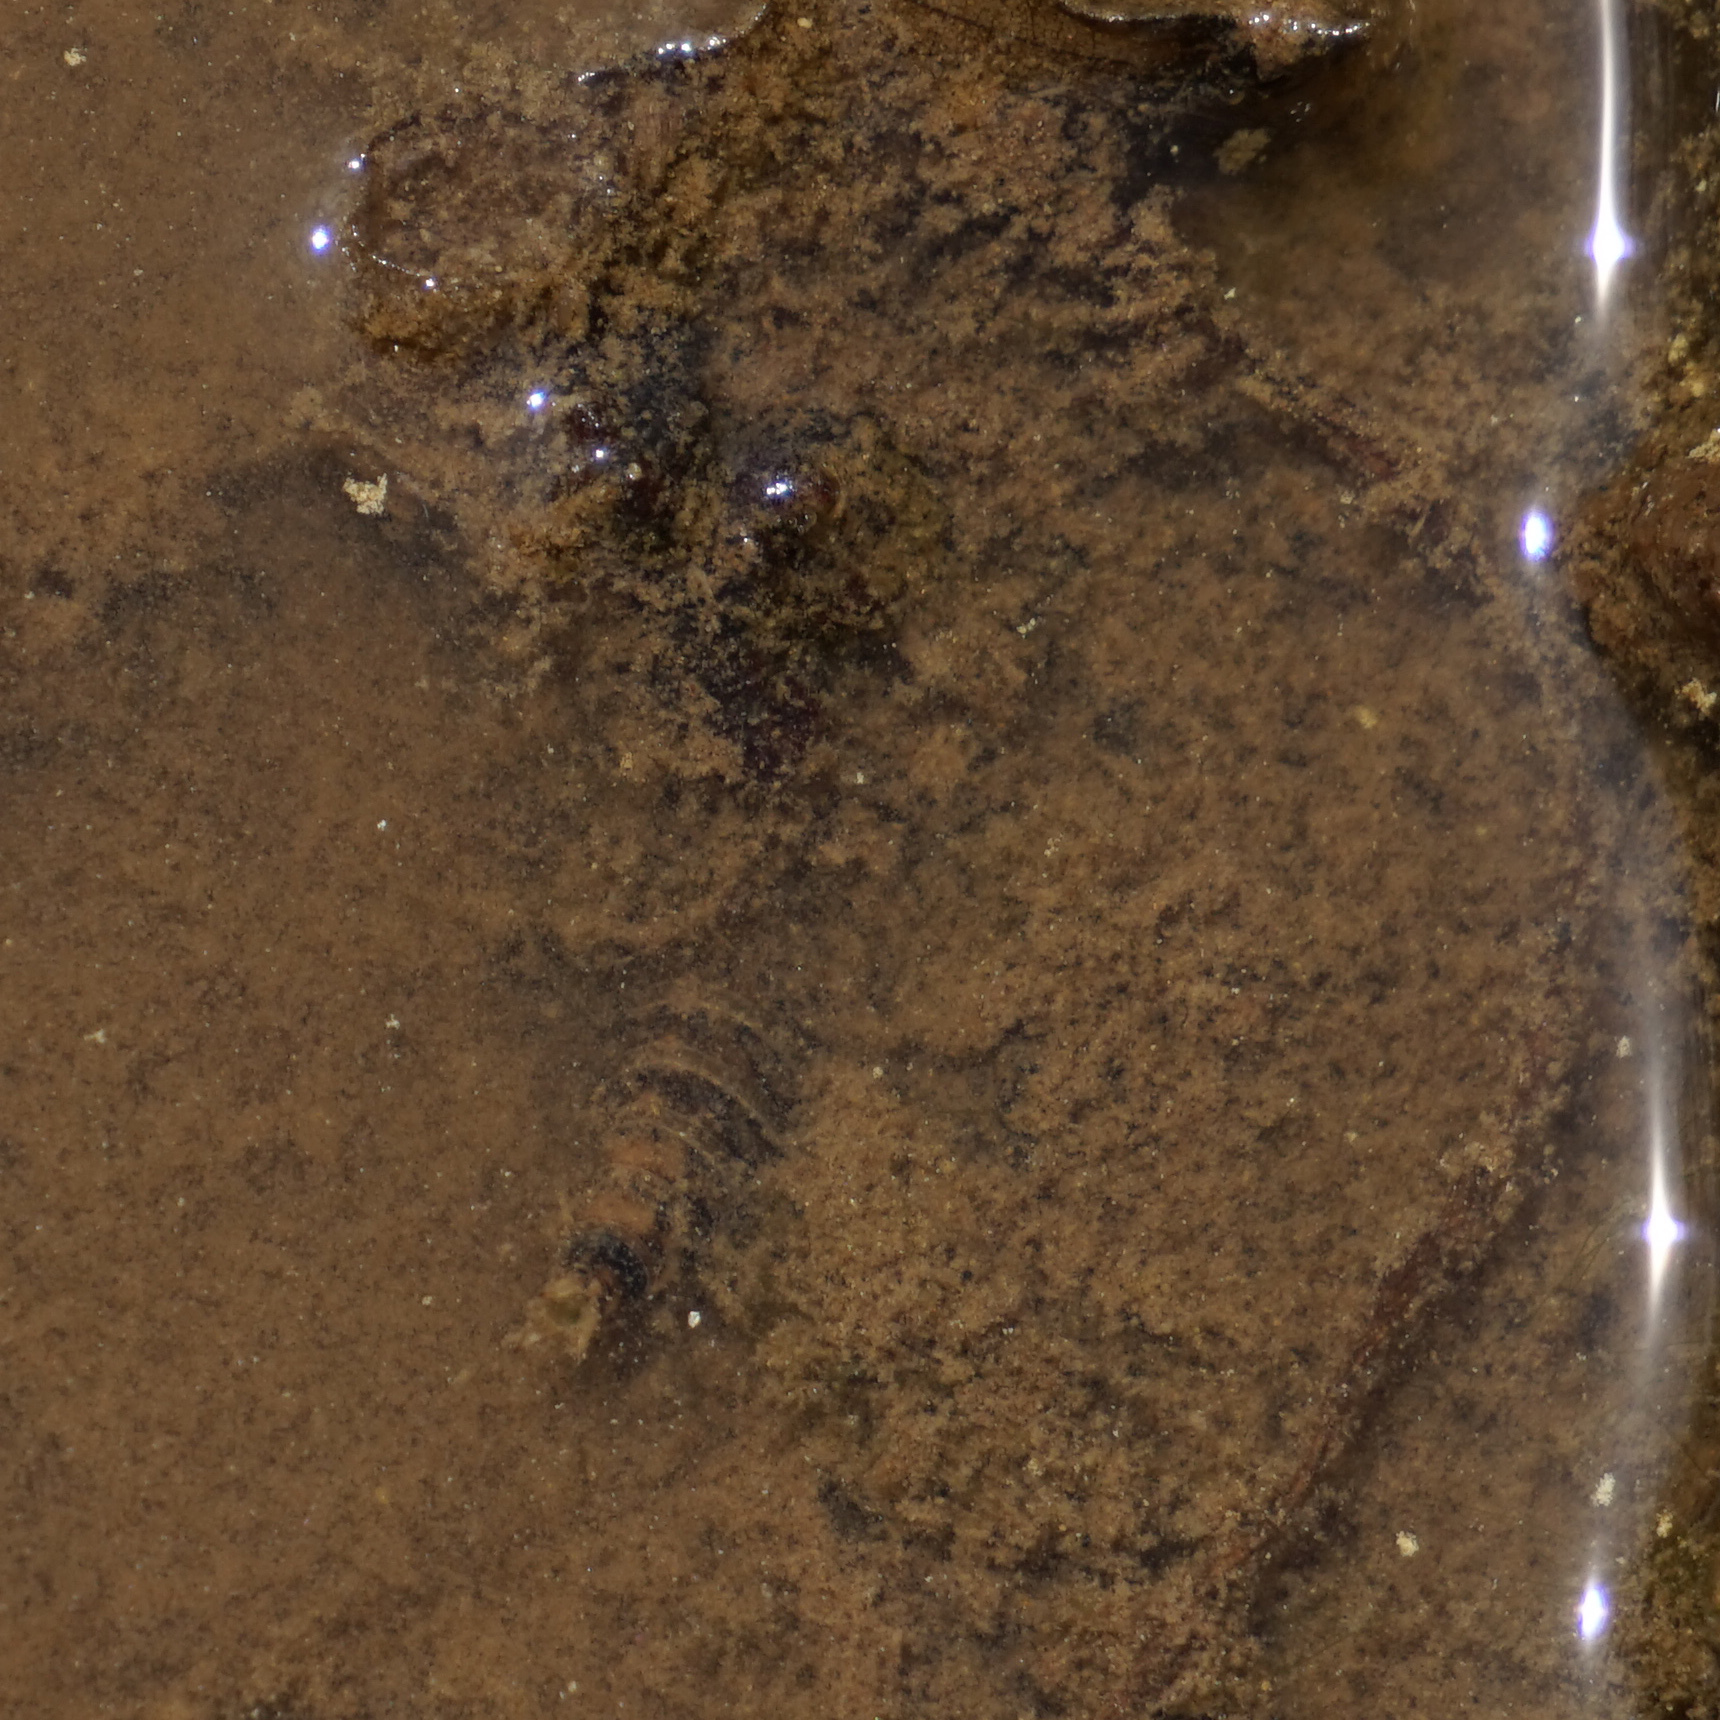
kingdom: Animalia
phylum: Arthropoda
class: Insecta
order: Odonata
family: Gomphidae
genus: Progomphus
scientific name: Progomphus obscurus
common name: Common sanddragon
